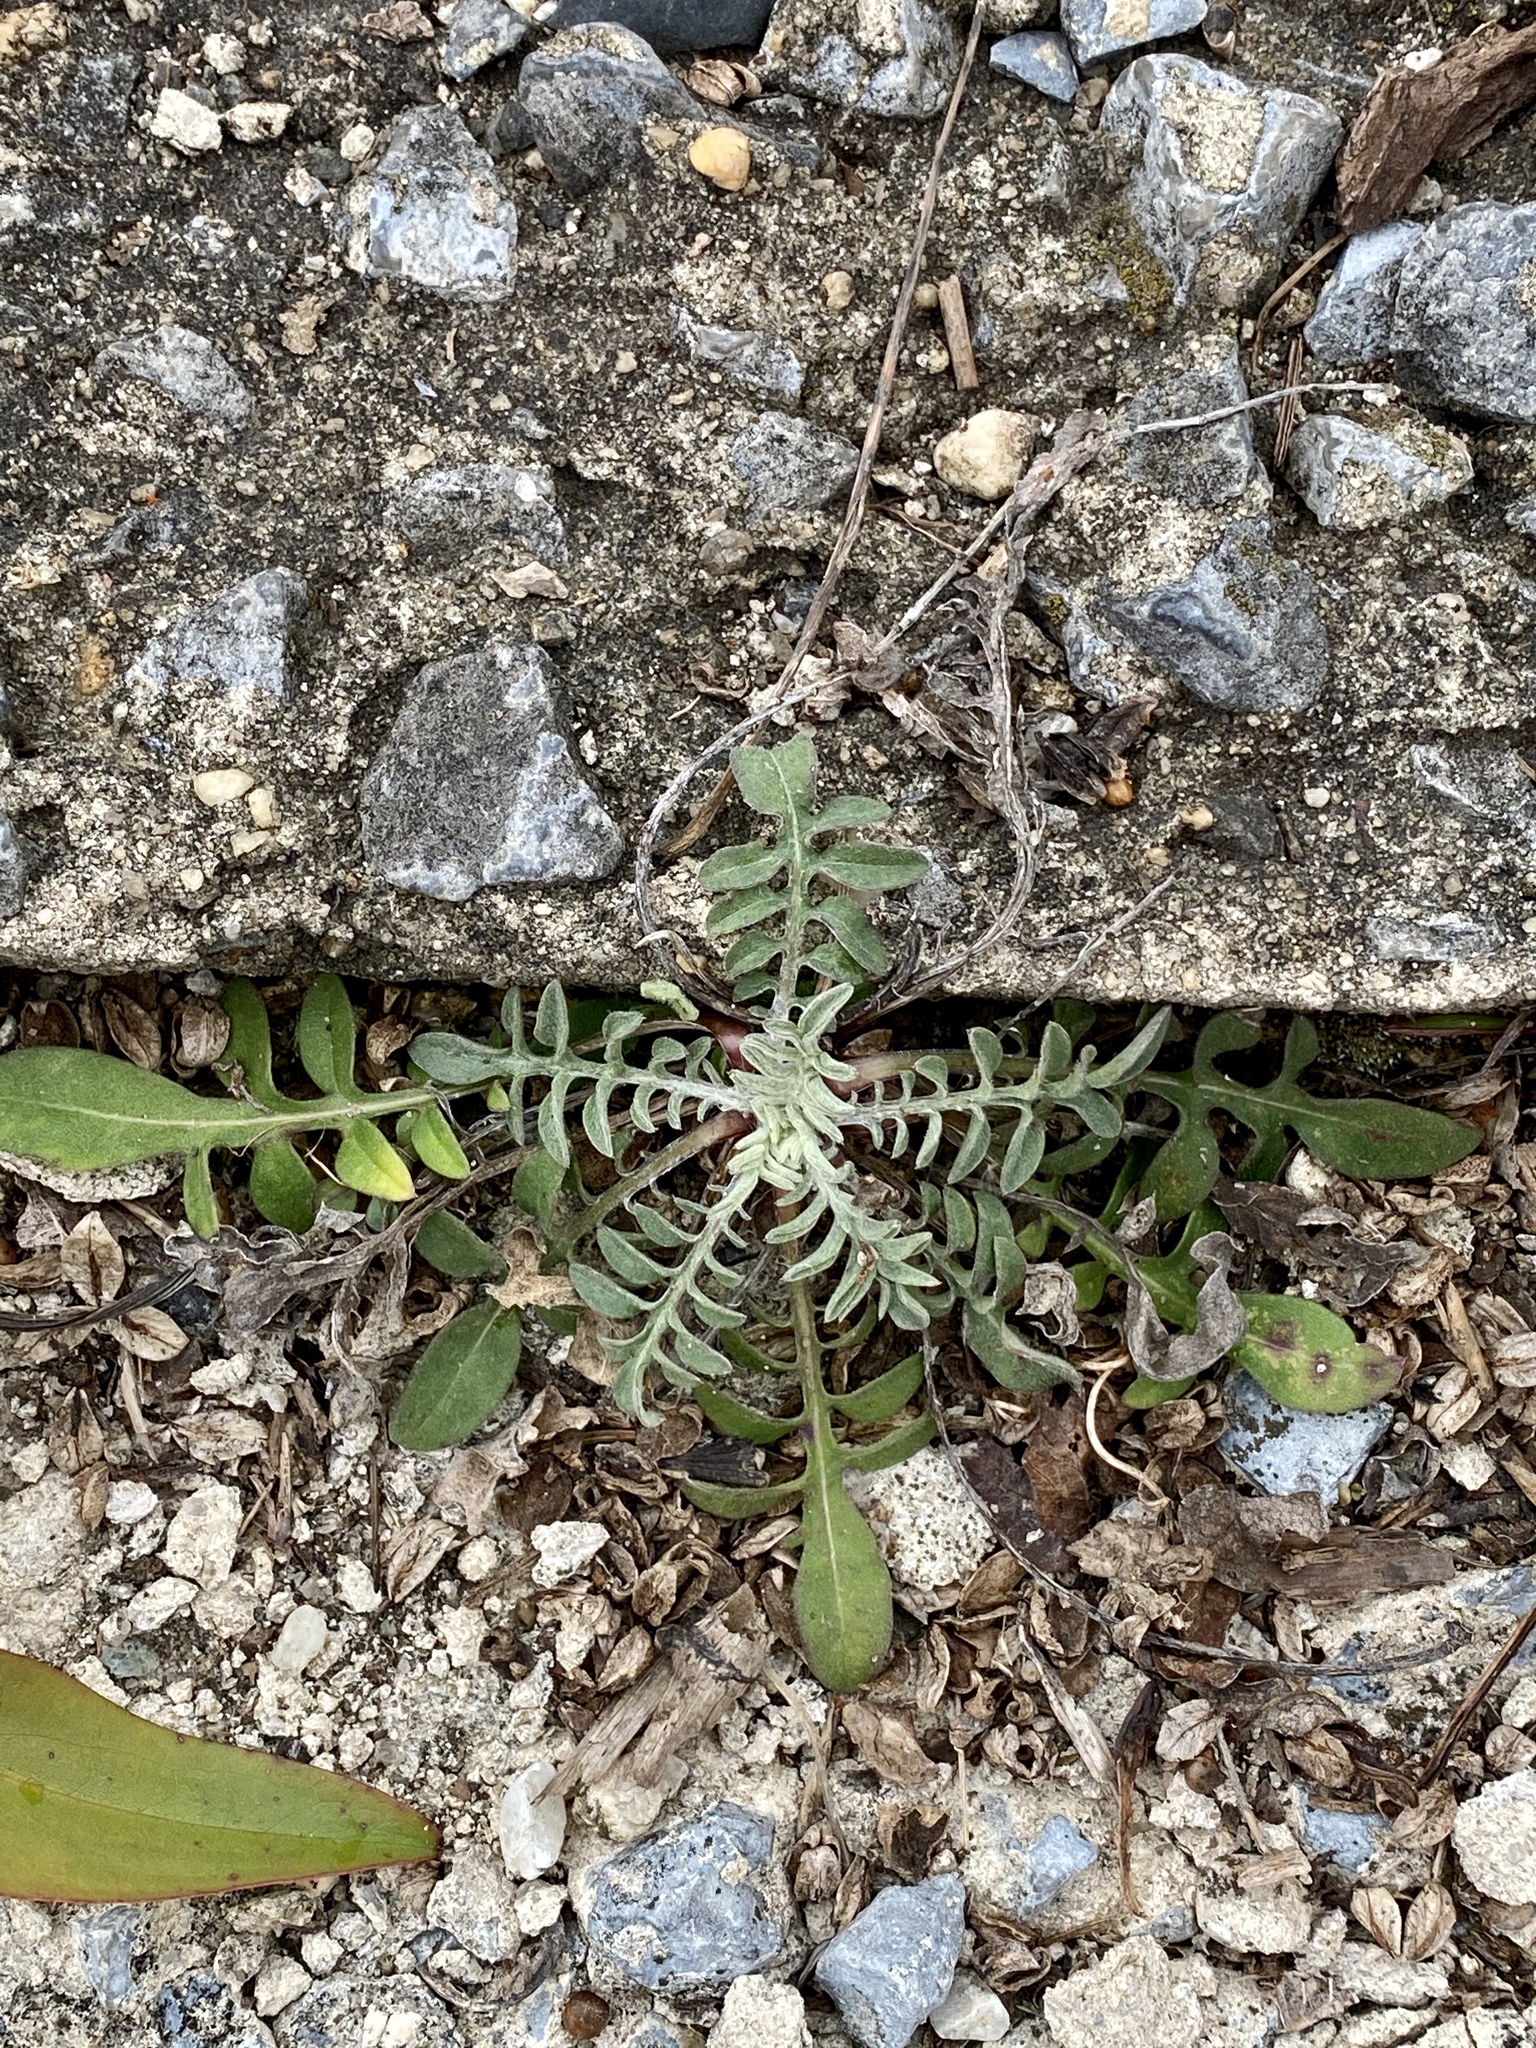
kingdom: Plantae
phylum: Tracheophyta
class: Magnoliopsida
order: Asterales
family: Asteraceae
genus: Centaurea
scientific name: Centaurea stoebe
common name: Spotted knapweed
